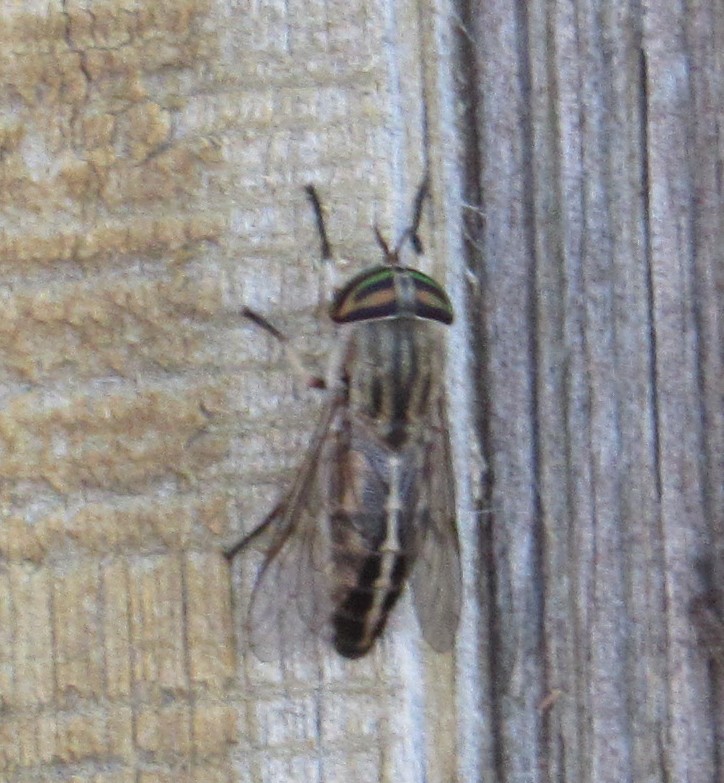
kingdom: Animalia
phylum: Arthropoda
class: Insecta
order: Diptera
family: Tabanidae
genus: Tabanus
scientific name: Tabanus lineola
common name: Striped horse fly
